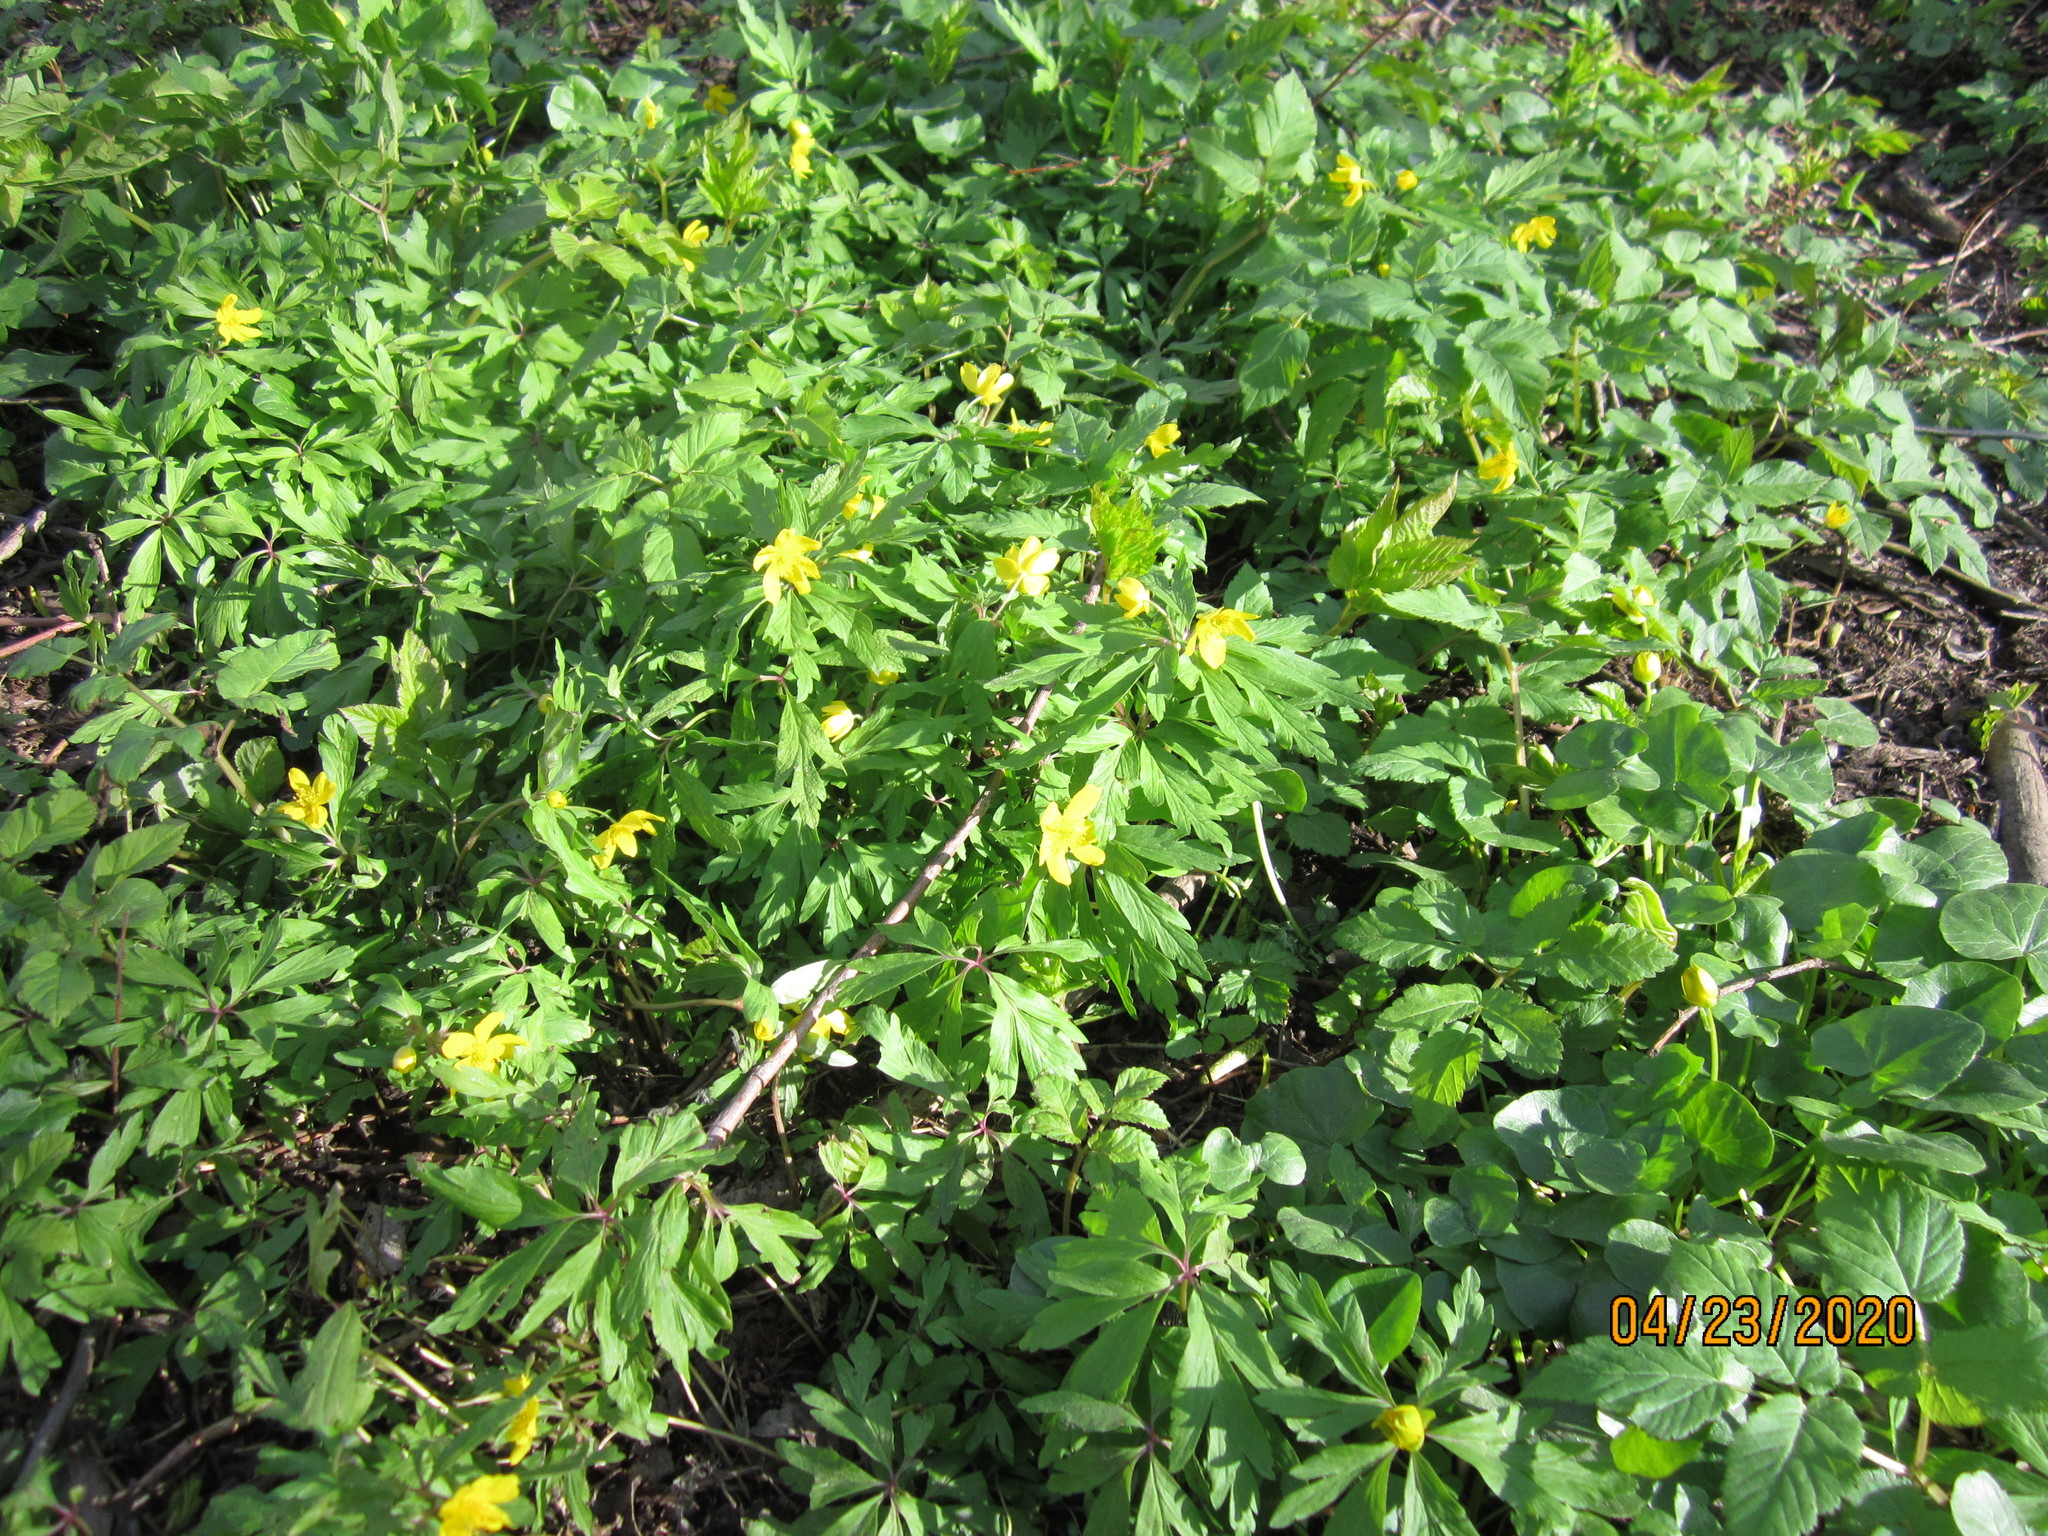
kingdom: Plantae
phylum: Tracheophyta
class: Magnoliopsida
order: Ranunculales
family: Ranunculaceae
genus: Anemone
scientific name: Anemone ranunculoides
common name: Yellow anemone
